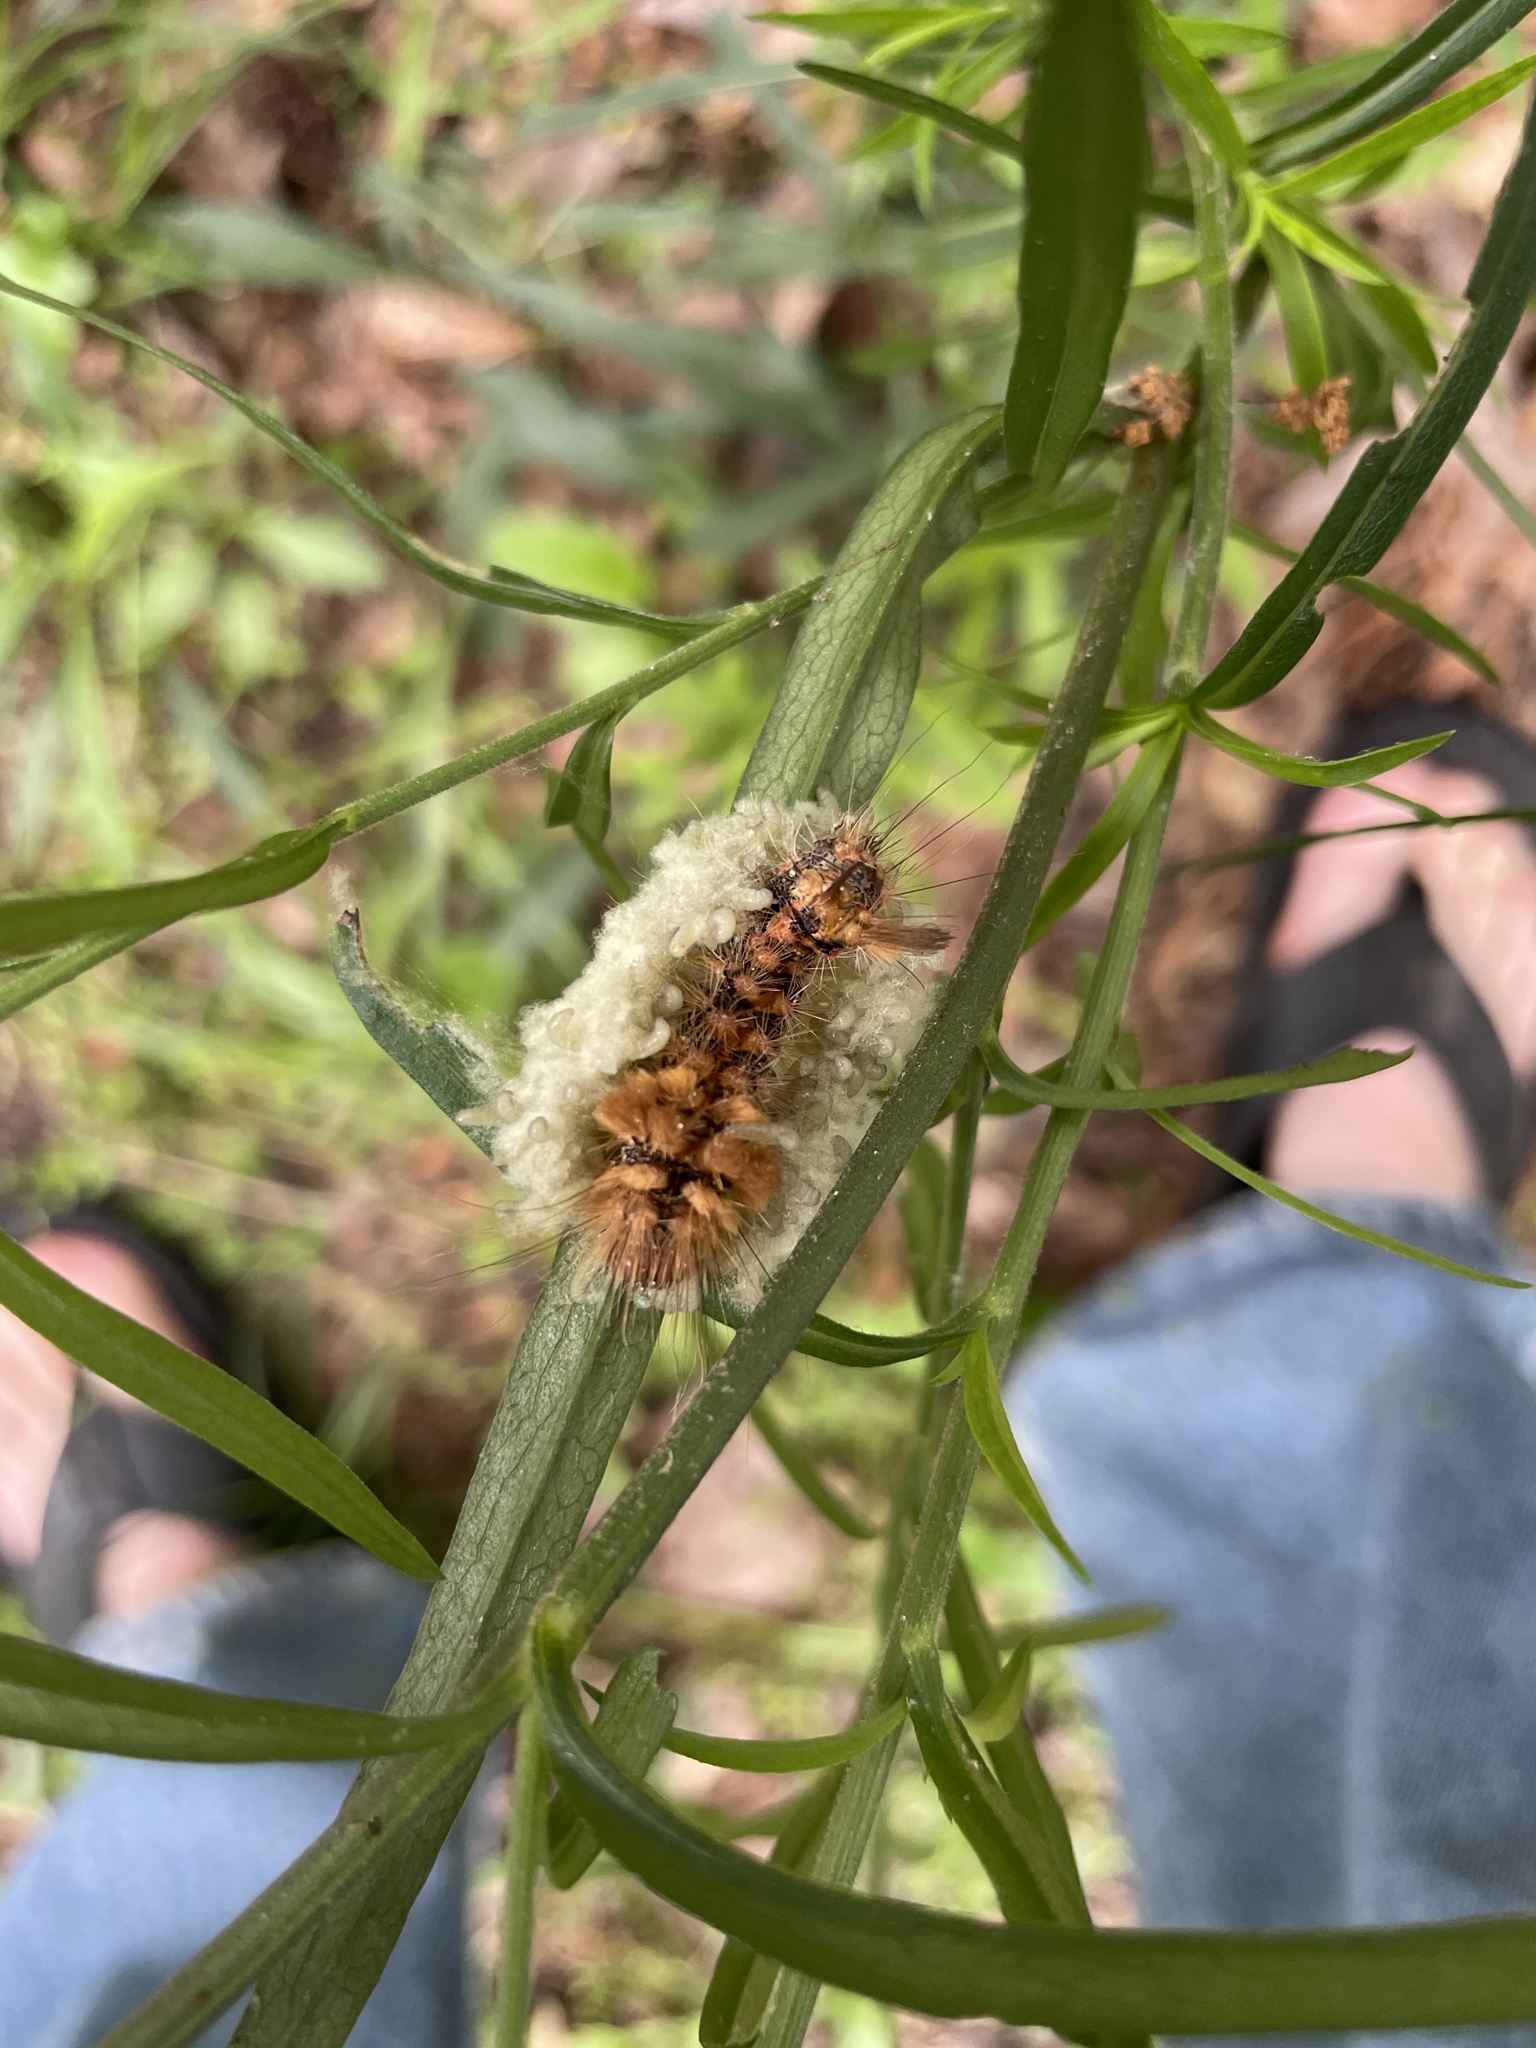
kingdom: Animalia
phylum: Arthropoda
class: Insecta
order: Lepidoptera
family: Noctuidae
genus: Acronicta
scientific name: Acronicta impleta
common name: Powdered dagger
